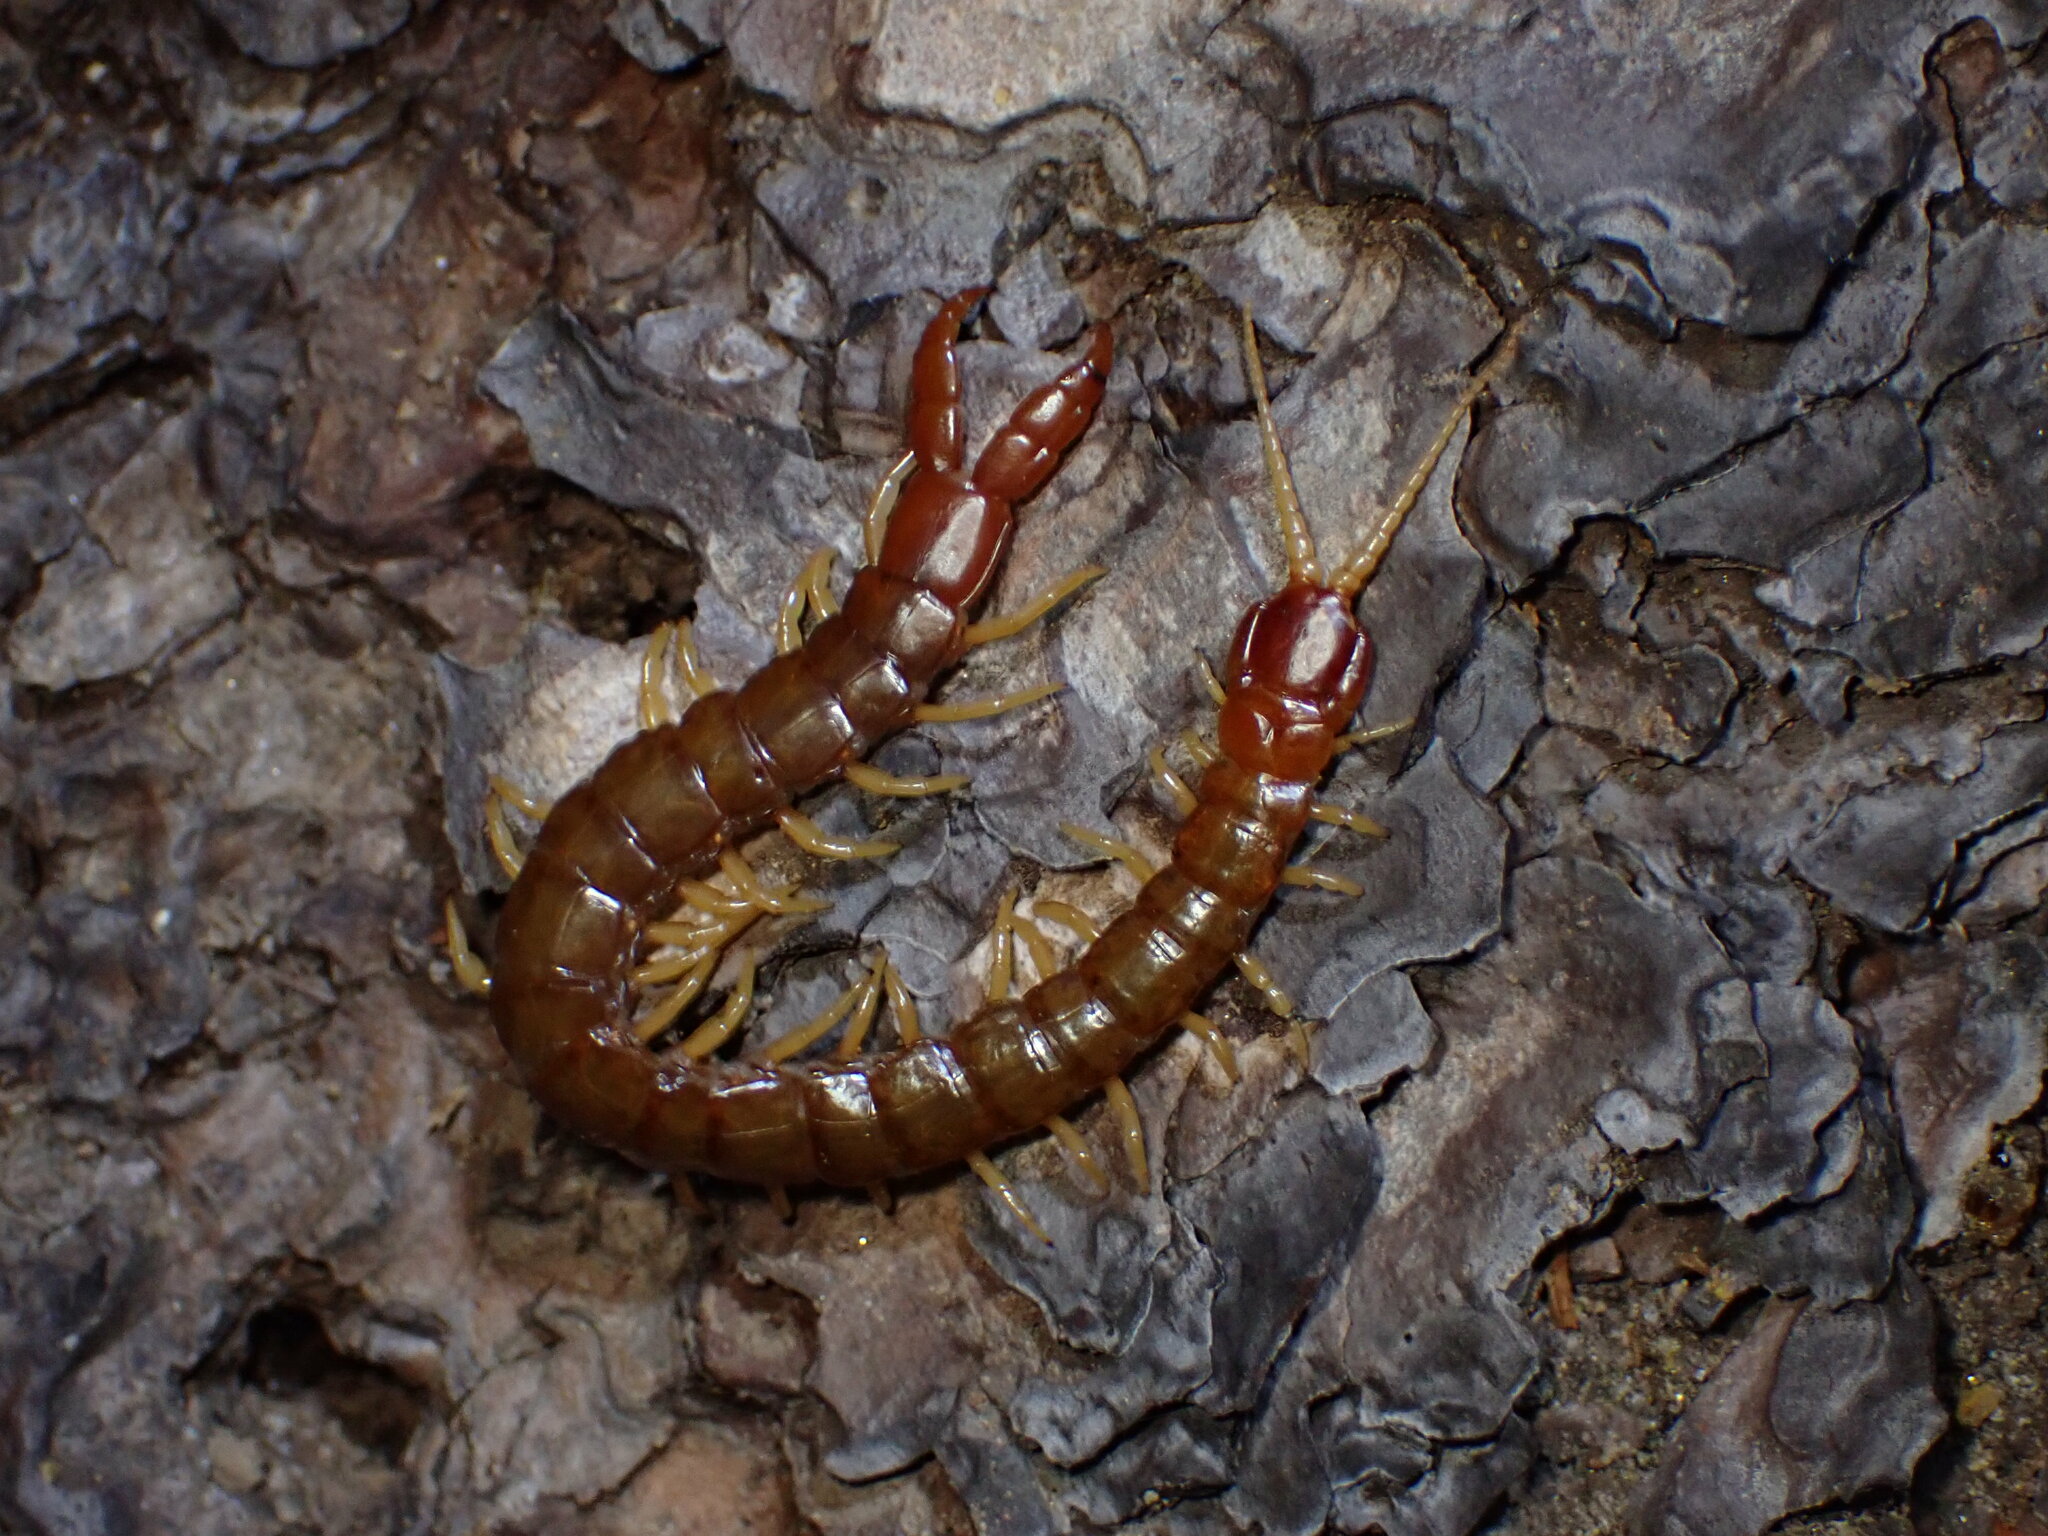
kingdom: Animalia
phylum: Arthropoda
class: Chilopoda
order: Scolopendromorpha
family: Cryptopidae
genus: Theatops
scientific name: Theatops californiensis
